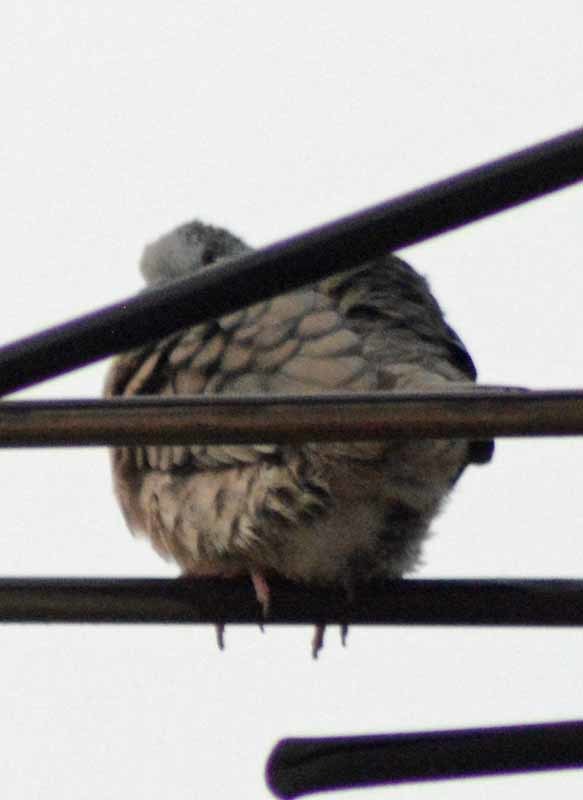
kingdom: Animalia
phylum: Chordata
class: Aves
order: Columbiformes
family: Columbidae
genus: Columbina
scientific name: Columbina inca
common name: Inca dove
